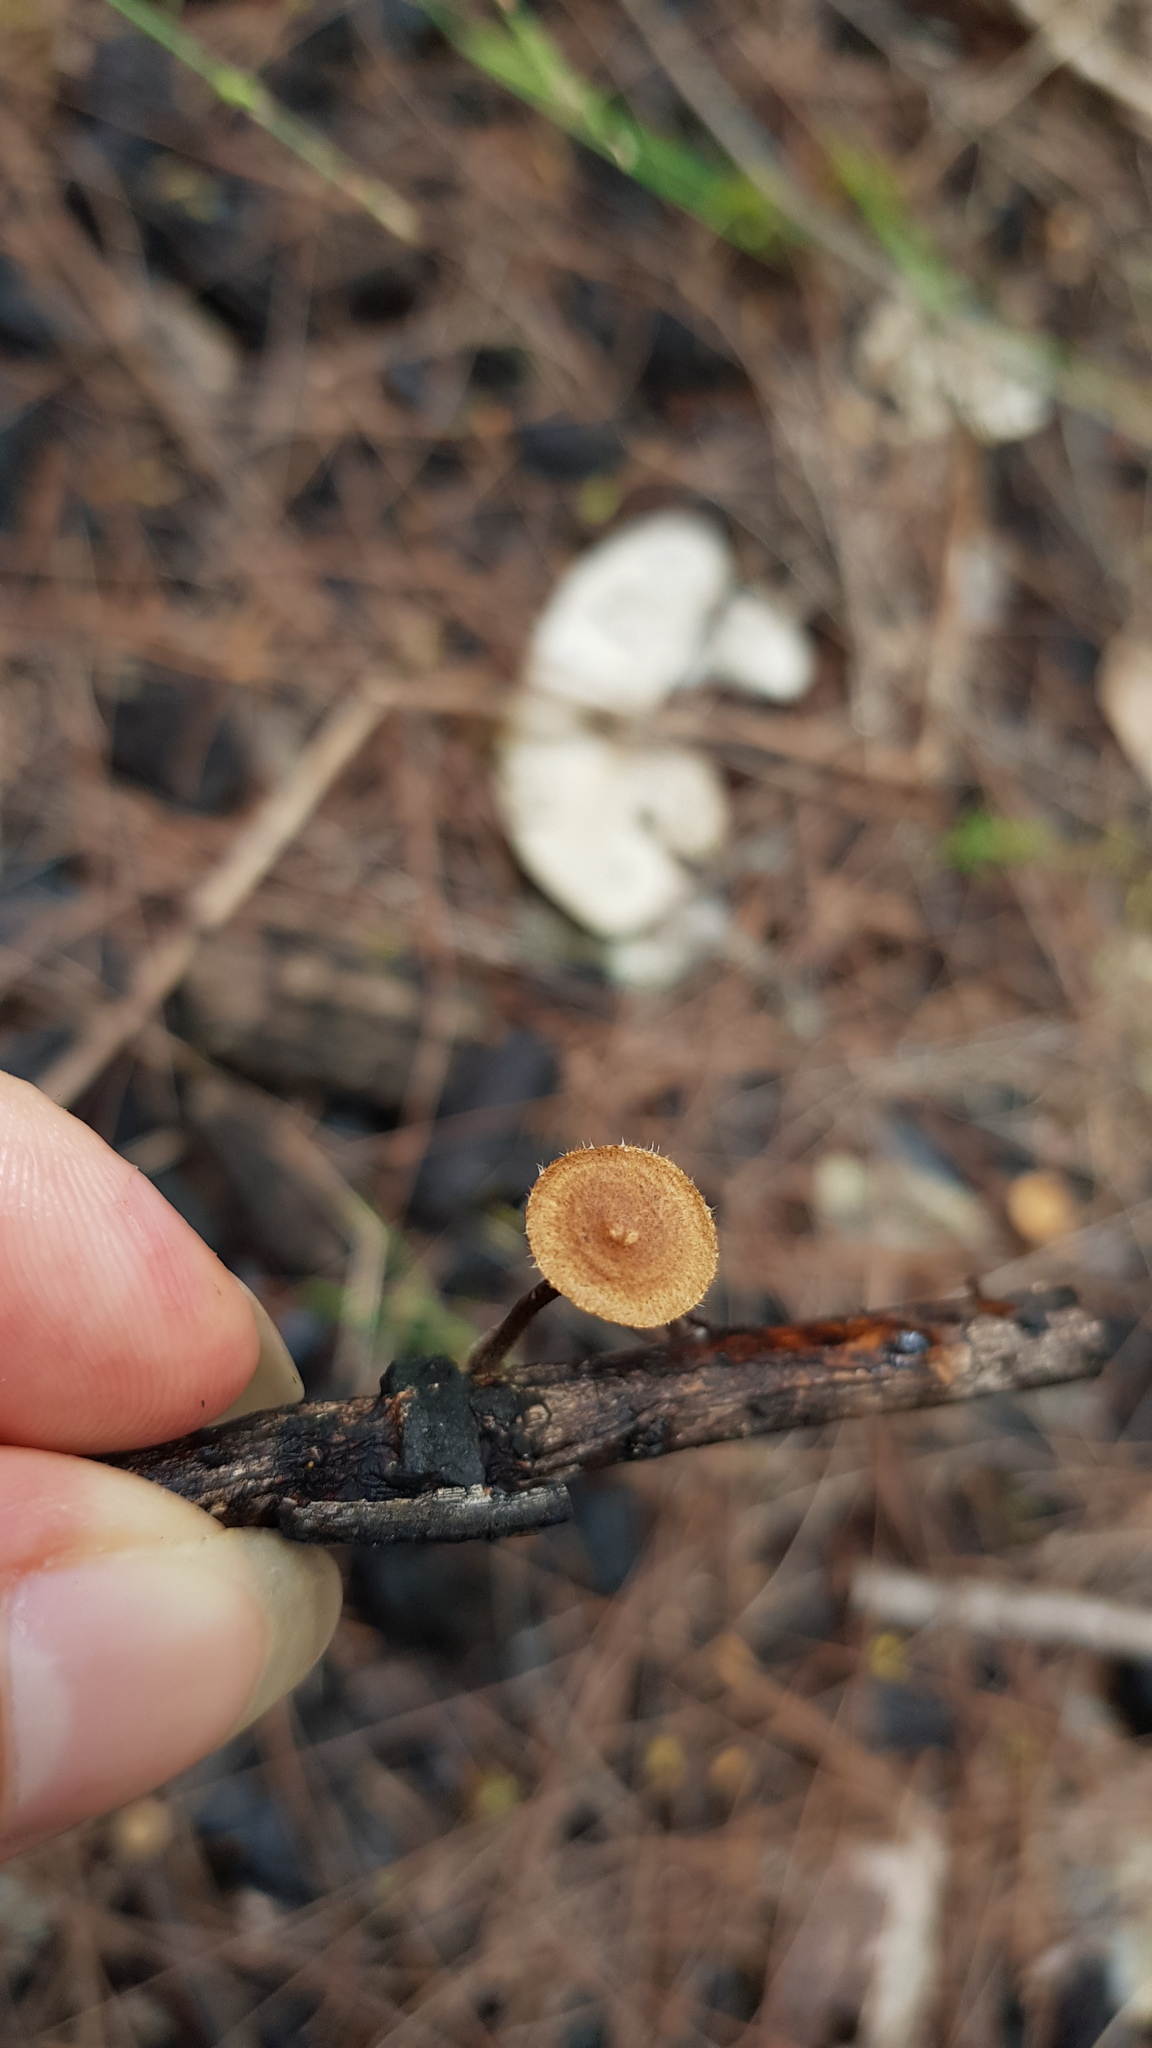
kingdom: Fungi
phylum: Basidiomycota
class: Agaricomycetes
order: Polyporales
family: Polyporaceae
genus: Lentinus
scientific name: Lentinus arcularius
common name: Spring polypore
